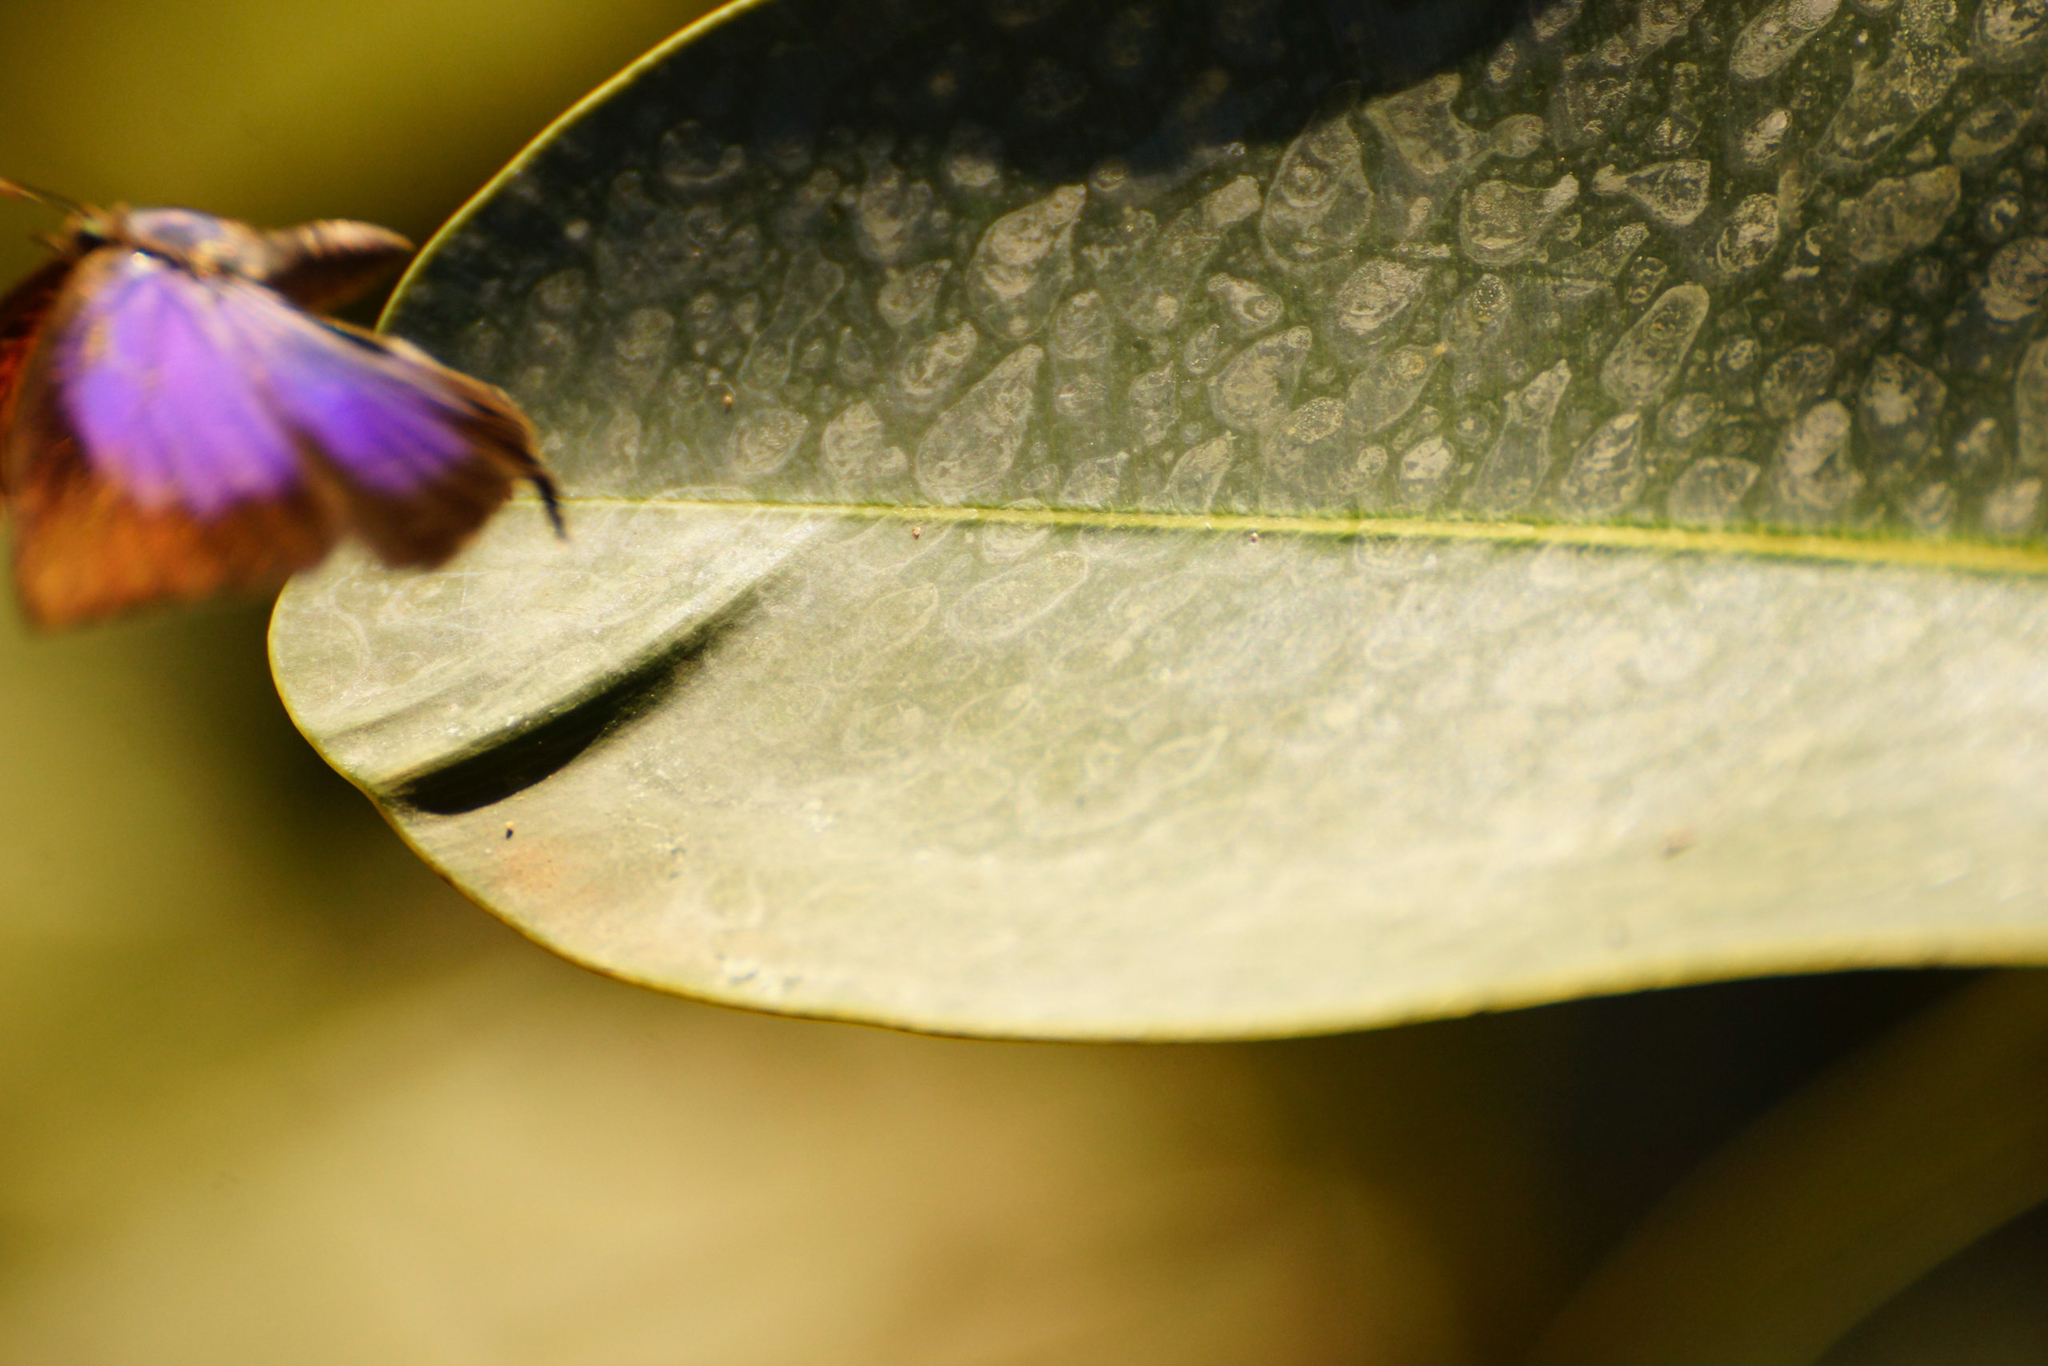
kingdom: Animalia
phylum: Arthropoda
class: Insecta
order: Lepidoptera
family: Lycaenidae
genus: Arhopala
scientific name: Arhopala
